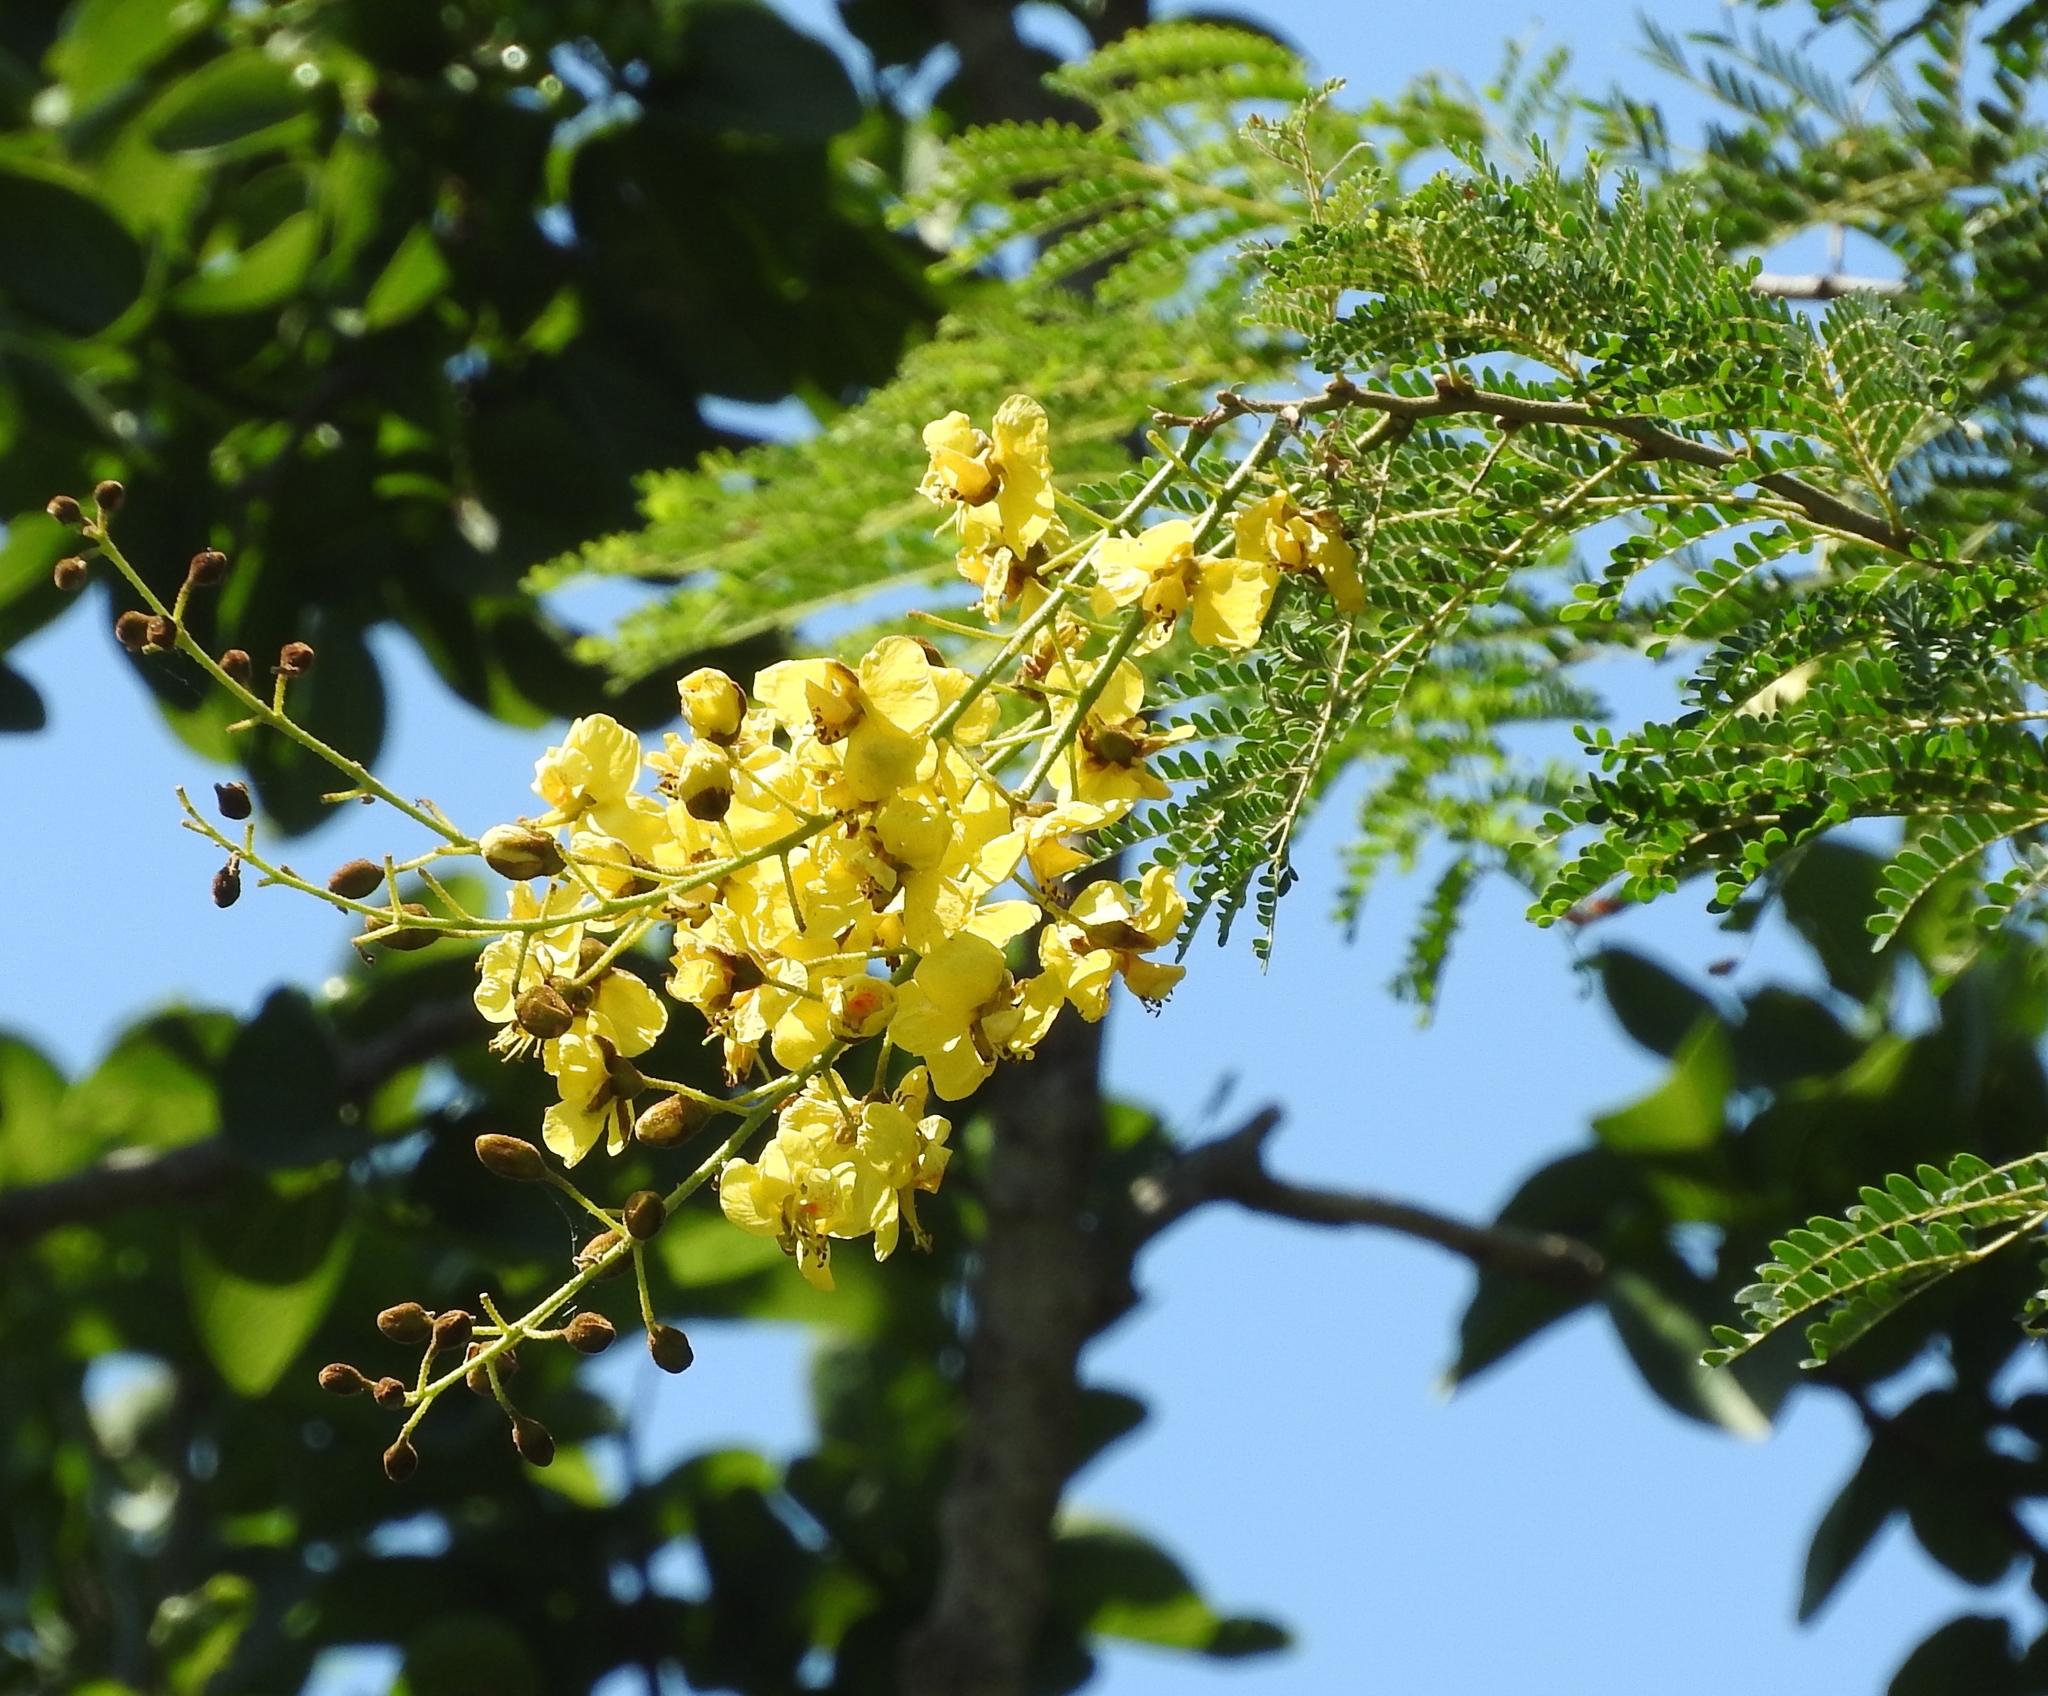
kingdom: Plantae
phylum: Tracheophyta
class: Magnoliopsida
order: Fabales
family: Fabaceae
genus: Cenostigma
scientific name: Cenostigma eriostachys
